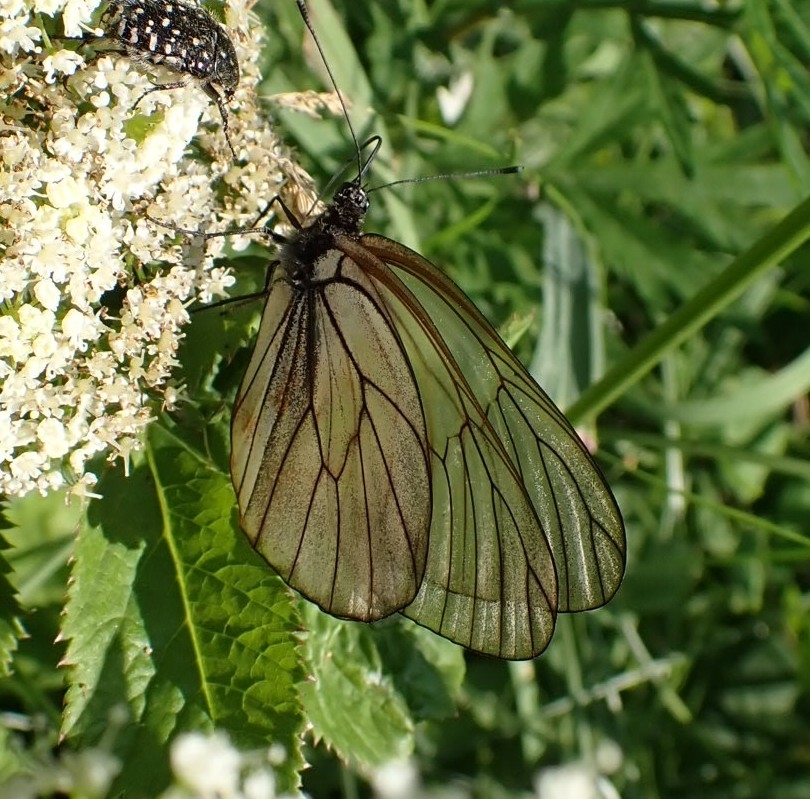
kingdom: Animalia
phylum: Arthropoda
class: Insecta
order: Lepidoptera
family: Pieridae
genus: Aporia
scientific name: Aporia crataegi
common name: Black-veined white
